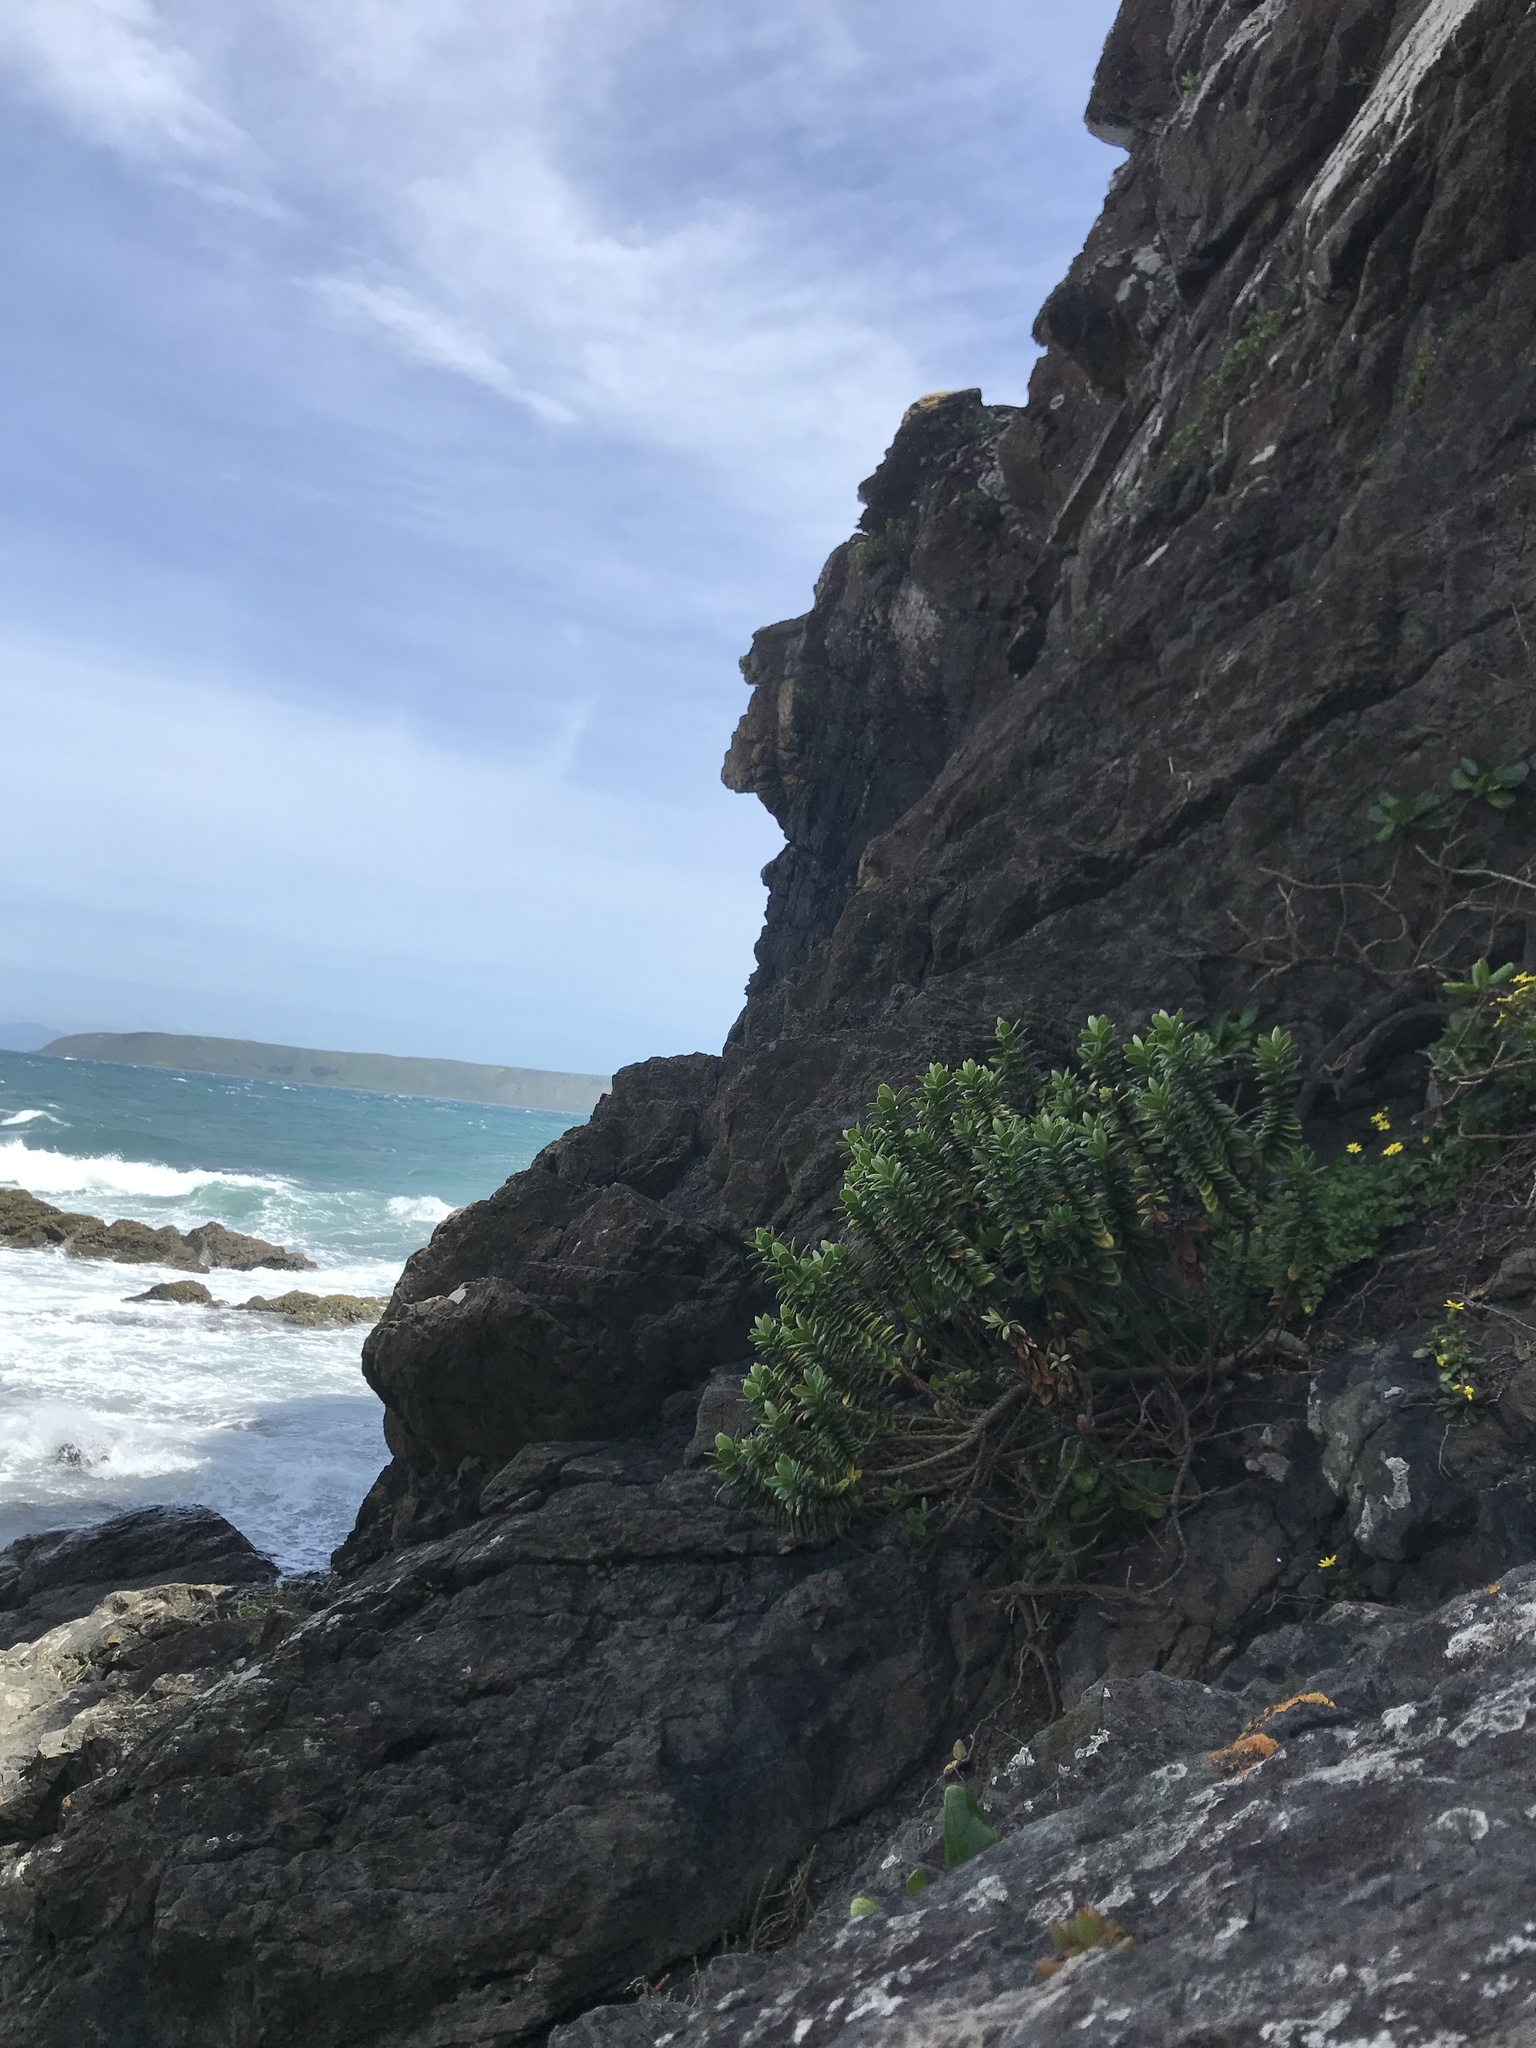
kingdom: Plantae
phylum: Tracheophyta
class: Magnoliopsida
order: Lamiales
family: Plantaginaceae
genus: Veronica
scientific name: Veronica elliptica
